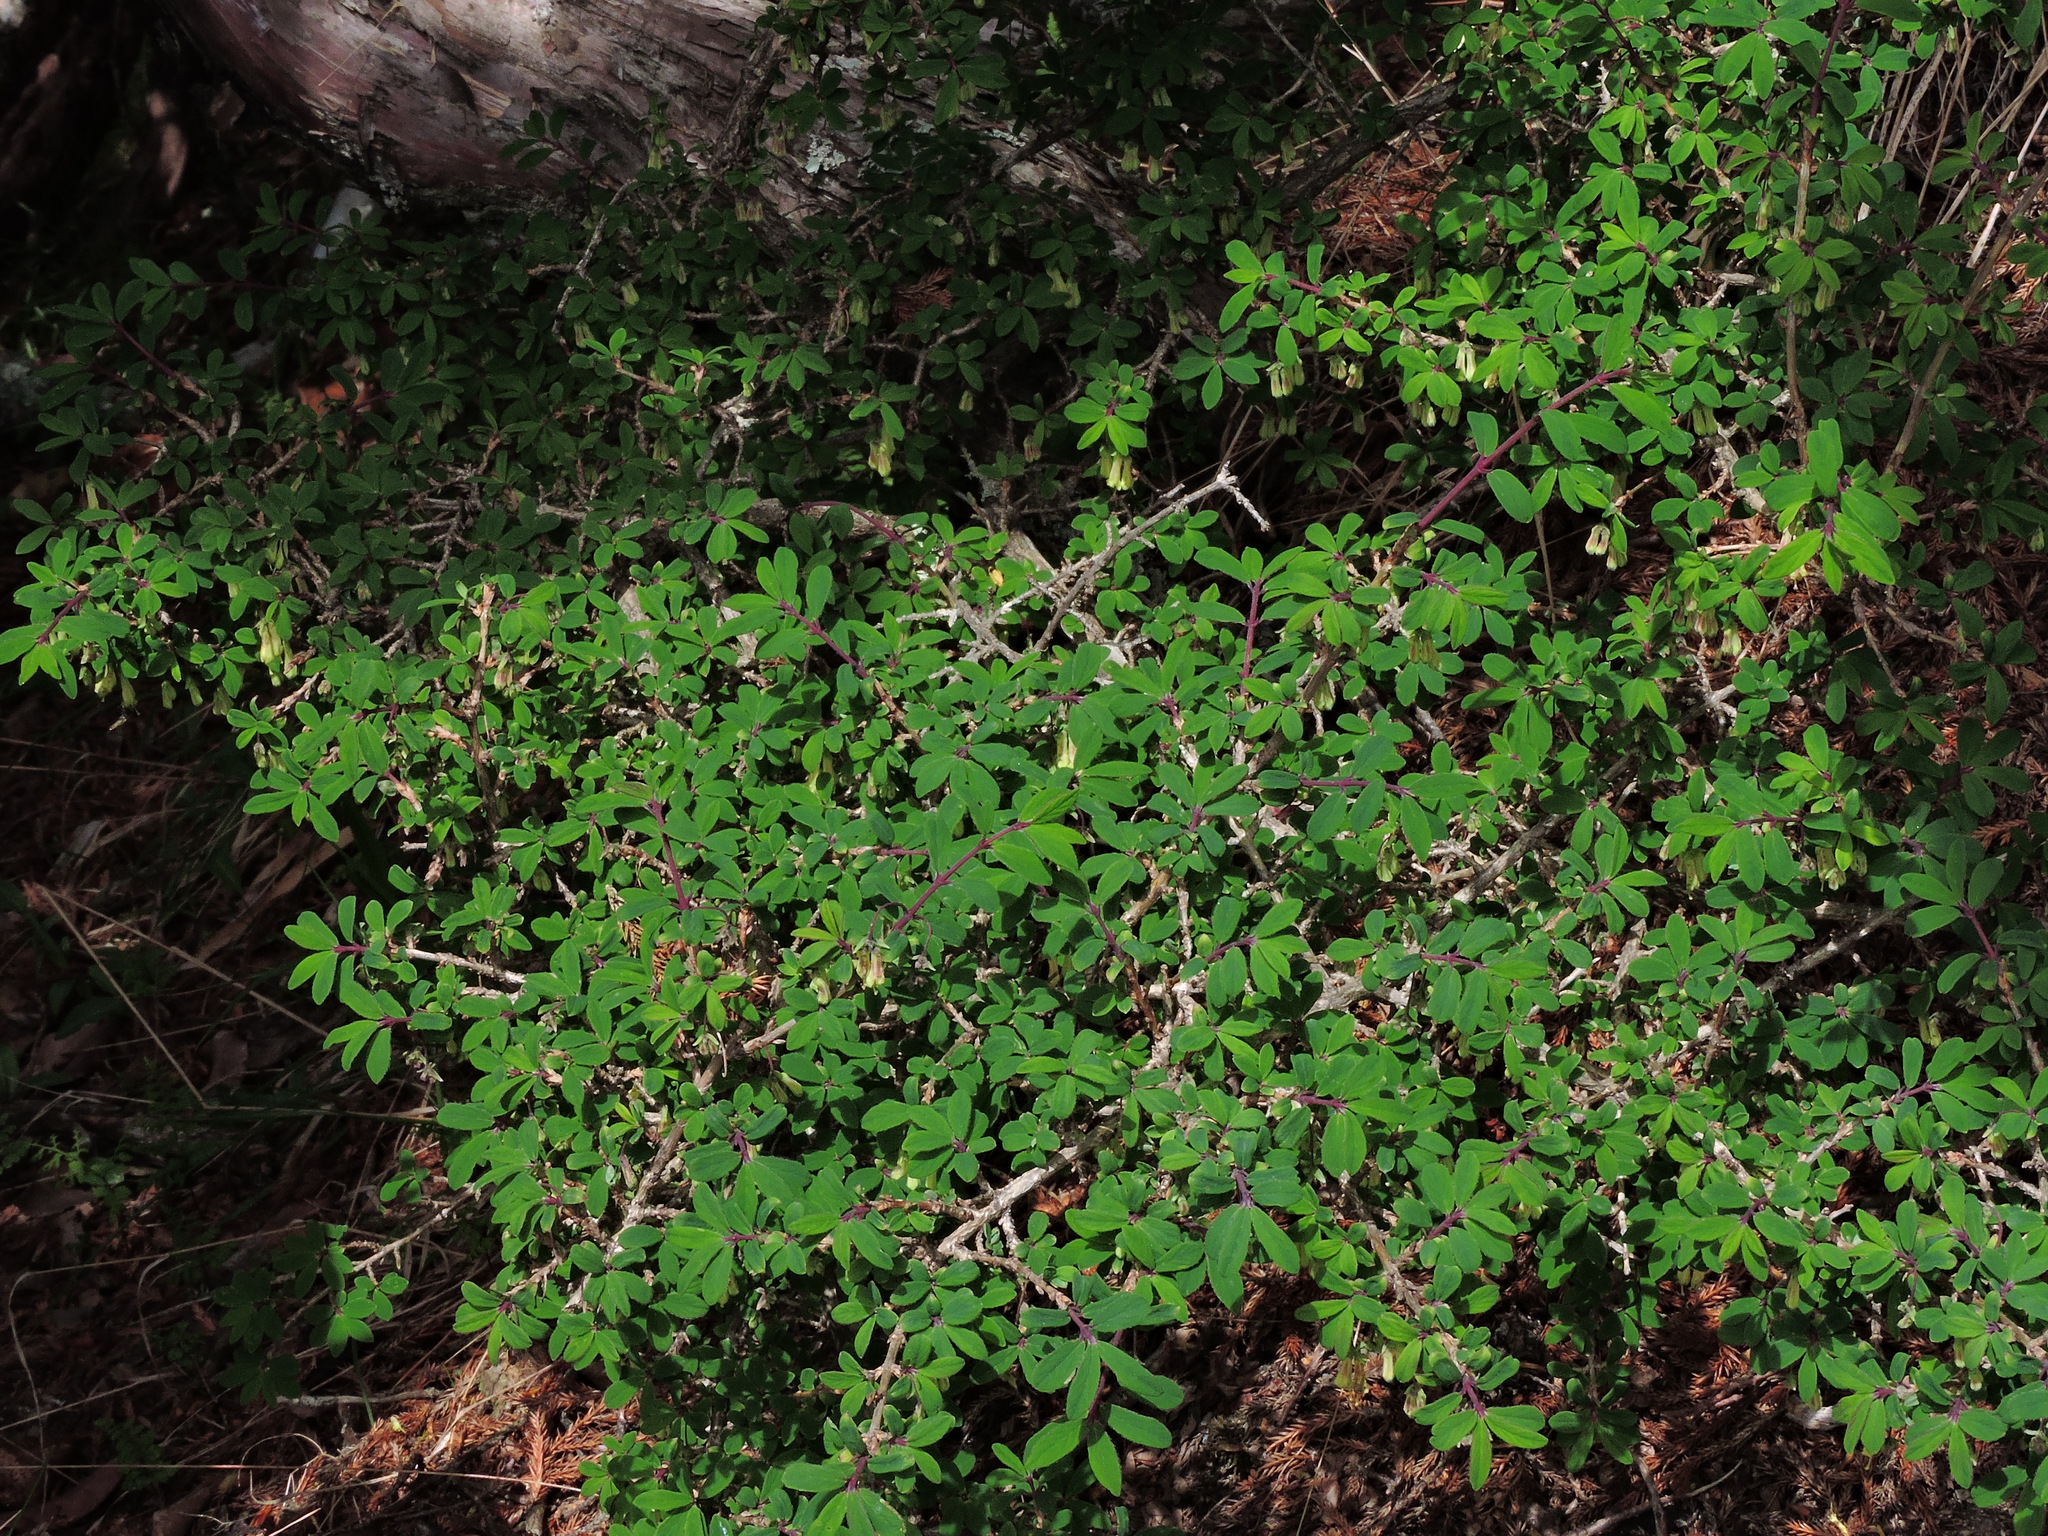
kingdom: Plantae
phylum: Tracheophyta
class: Magnoliopsida
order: Dipsacales
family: Caprifoliaceae
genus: Lonicera
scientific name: Lonicera kawakamii
